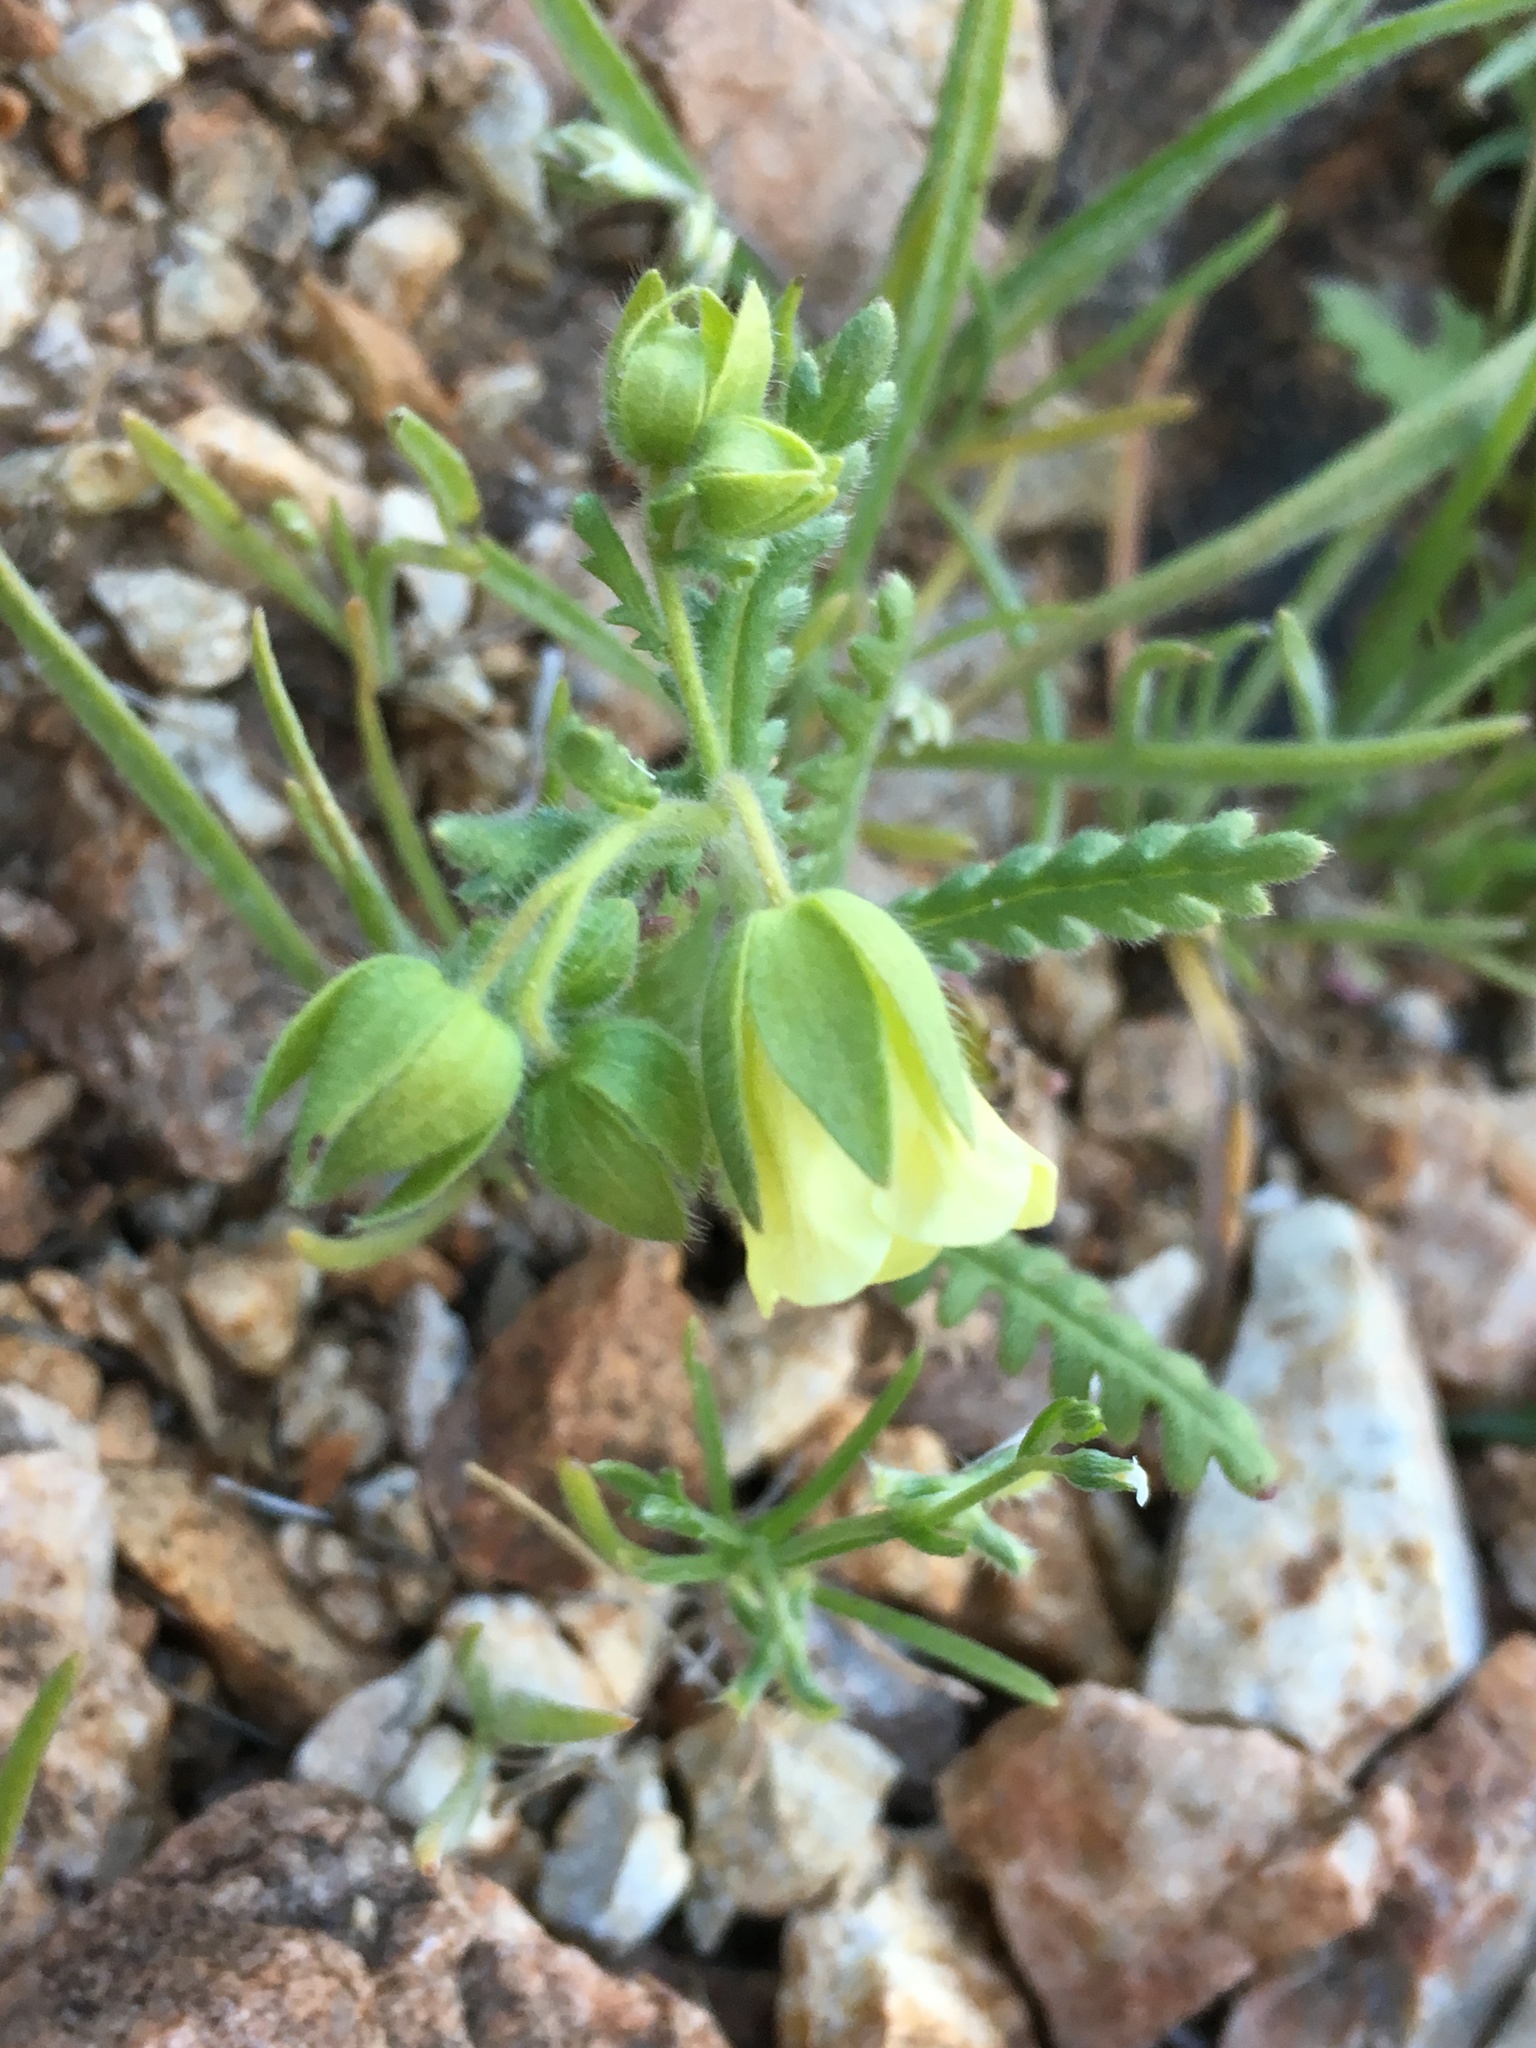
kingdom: Plantae
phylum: Tracheophyta
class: Magnoliopsida
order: Boraginales
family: Hydrophyllaceae
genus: Emmenanthe
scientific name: Emmenanthe penduliflora
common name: Whispering-bells
